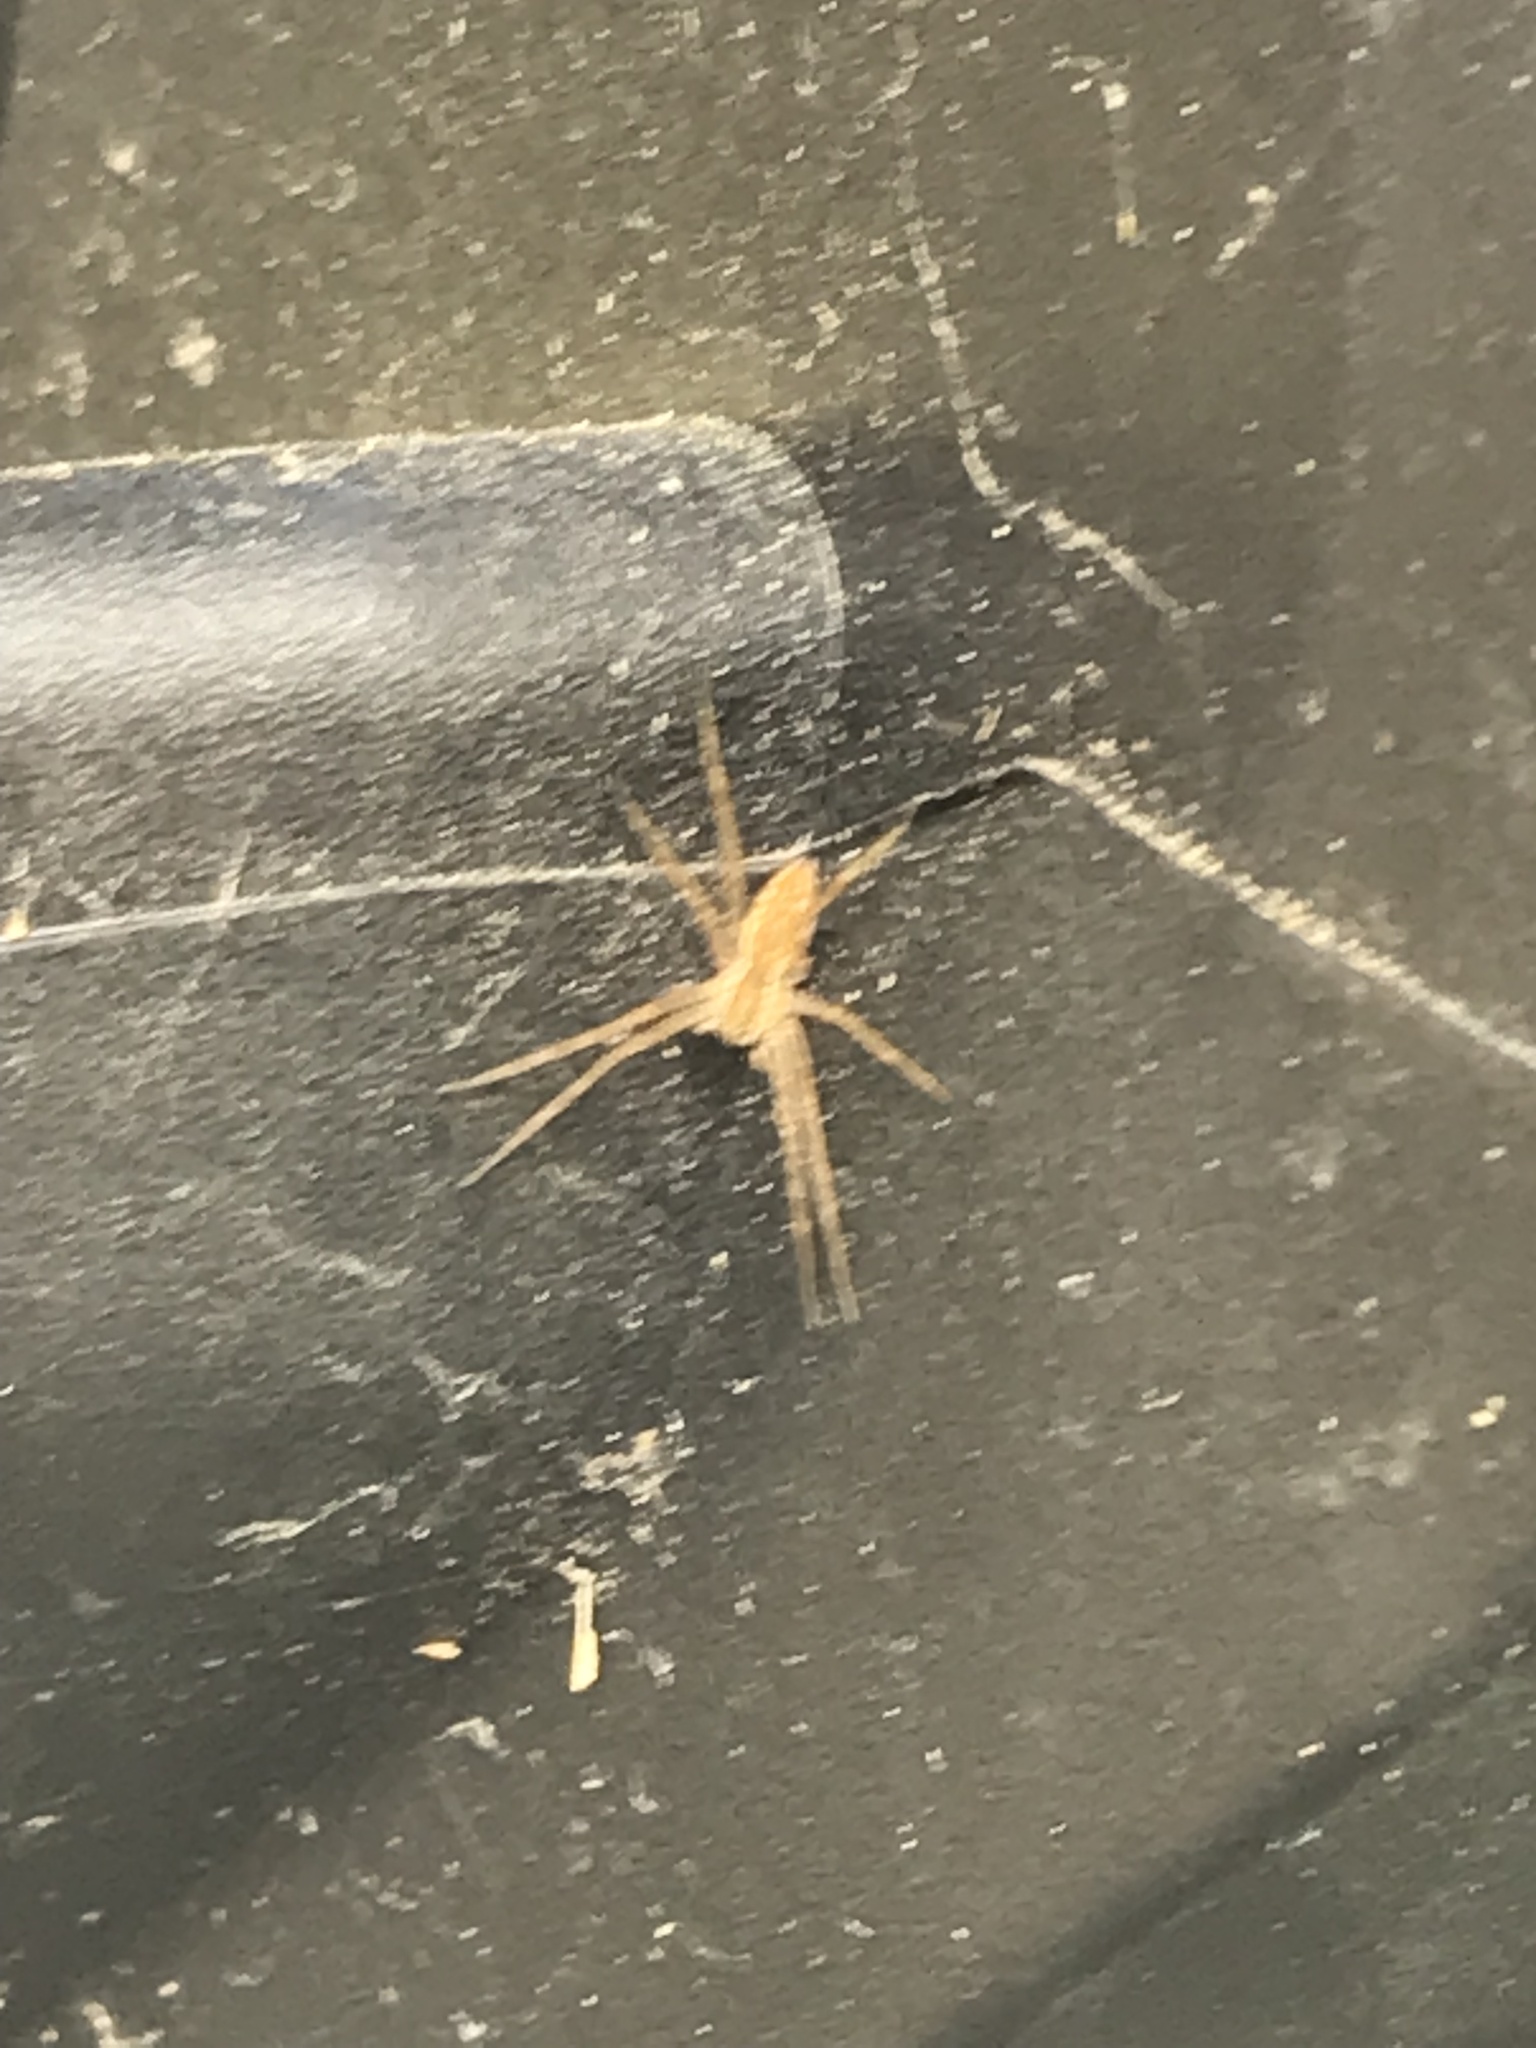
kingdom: Animalia
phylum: Arthropoda
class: Arachnida
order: Araneae
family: Pisauridae
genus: Pisaurina
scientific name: Pisaurina mira
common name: American nursery web spider
